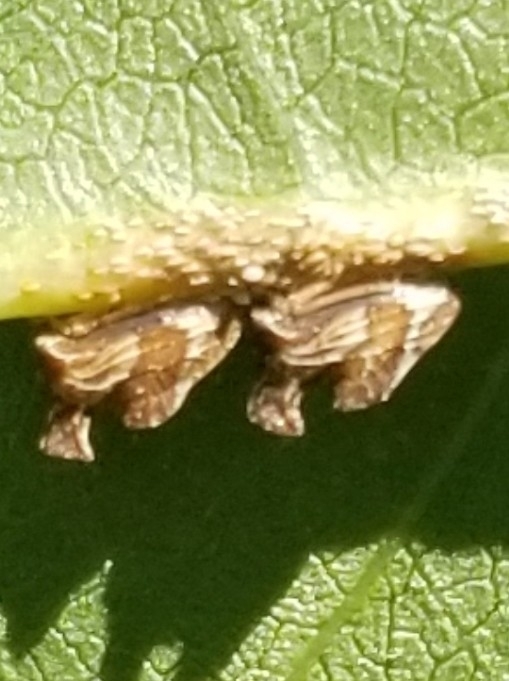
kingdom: Animalia
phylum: Arthropoda
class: Insecta
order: Hemiptera
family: Membracidae
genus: Entylia
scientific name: Entylia carinata
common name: Keeled treehopper
